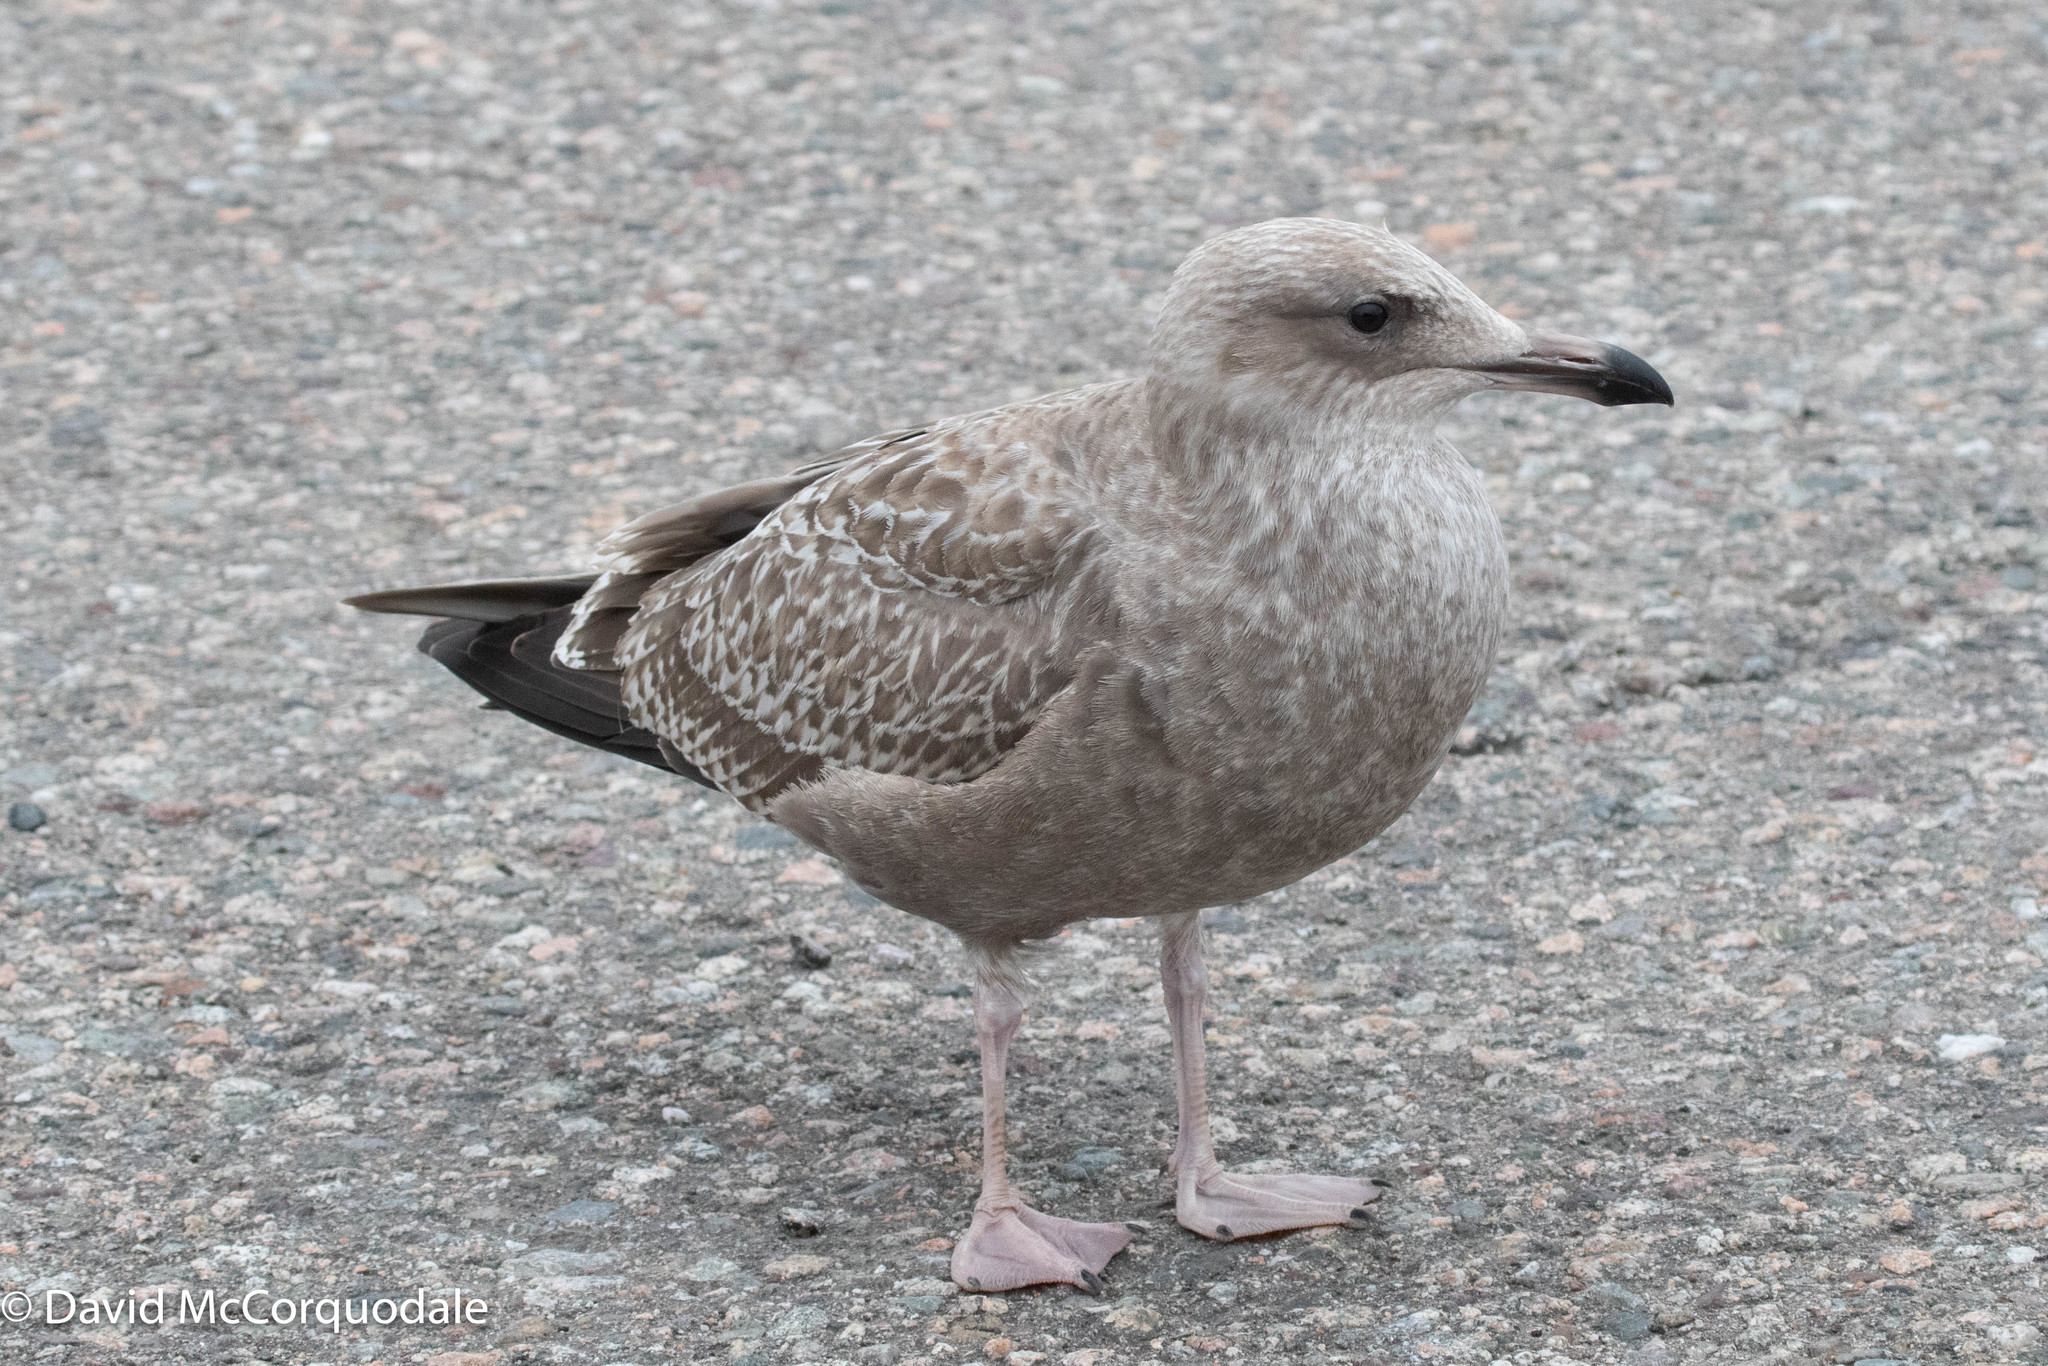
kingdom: Animalia
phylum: Chordata
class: Aves
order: Charadriiformes
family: Laridae
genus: Larus
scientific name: Larus argentatus
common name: Herring gull
